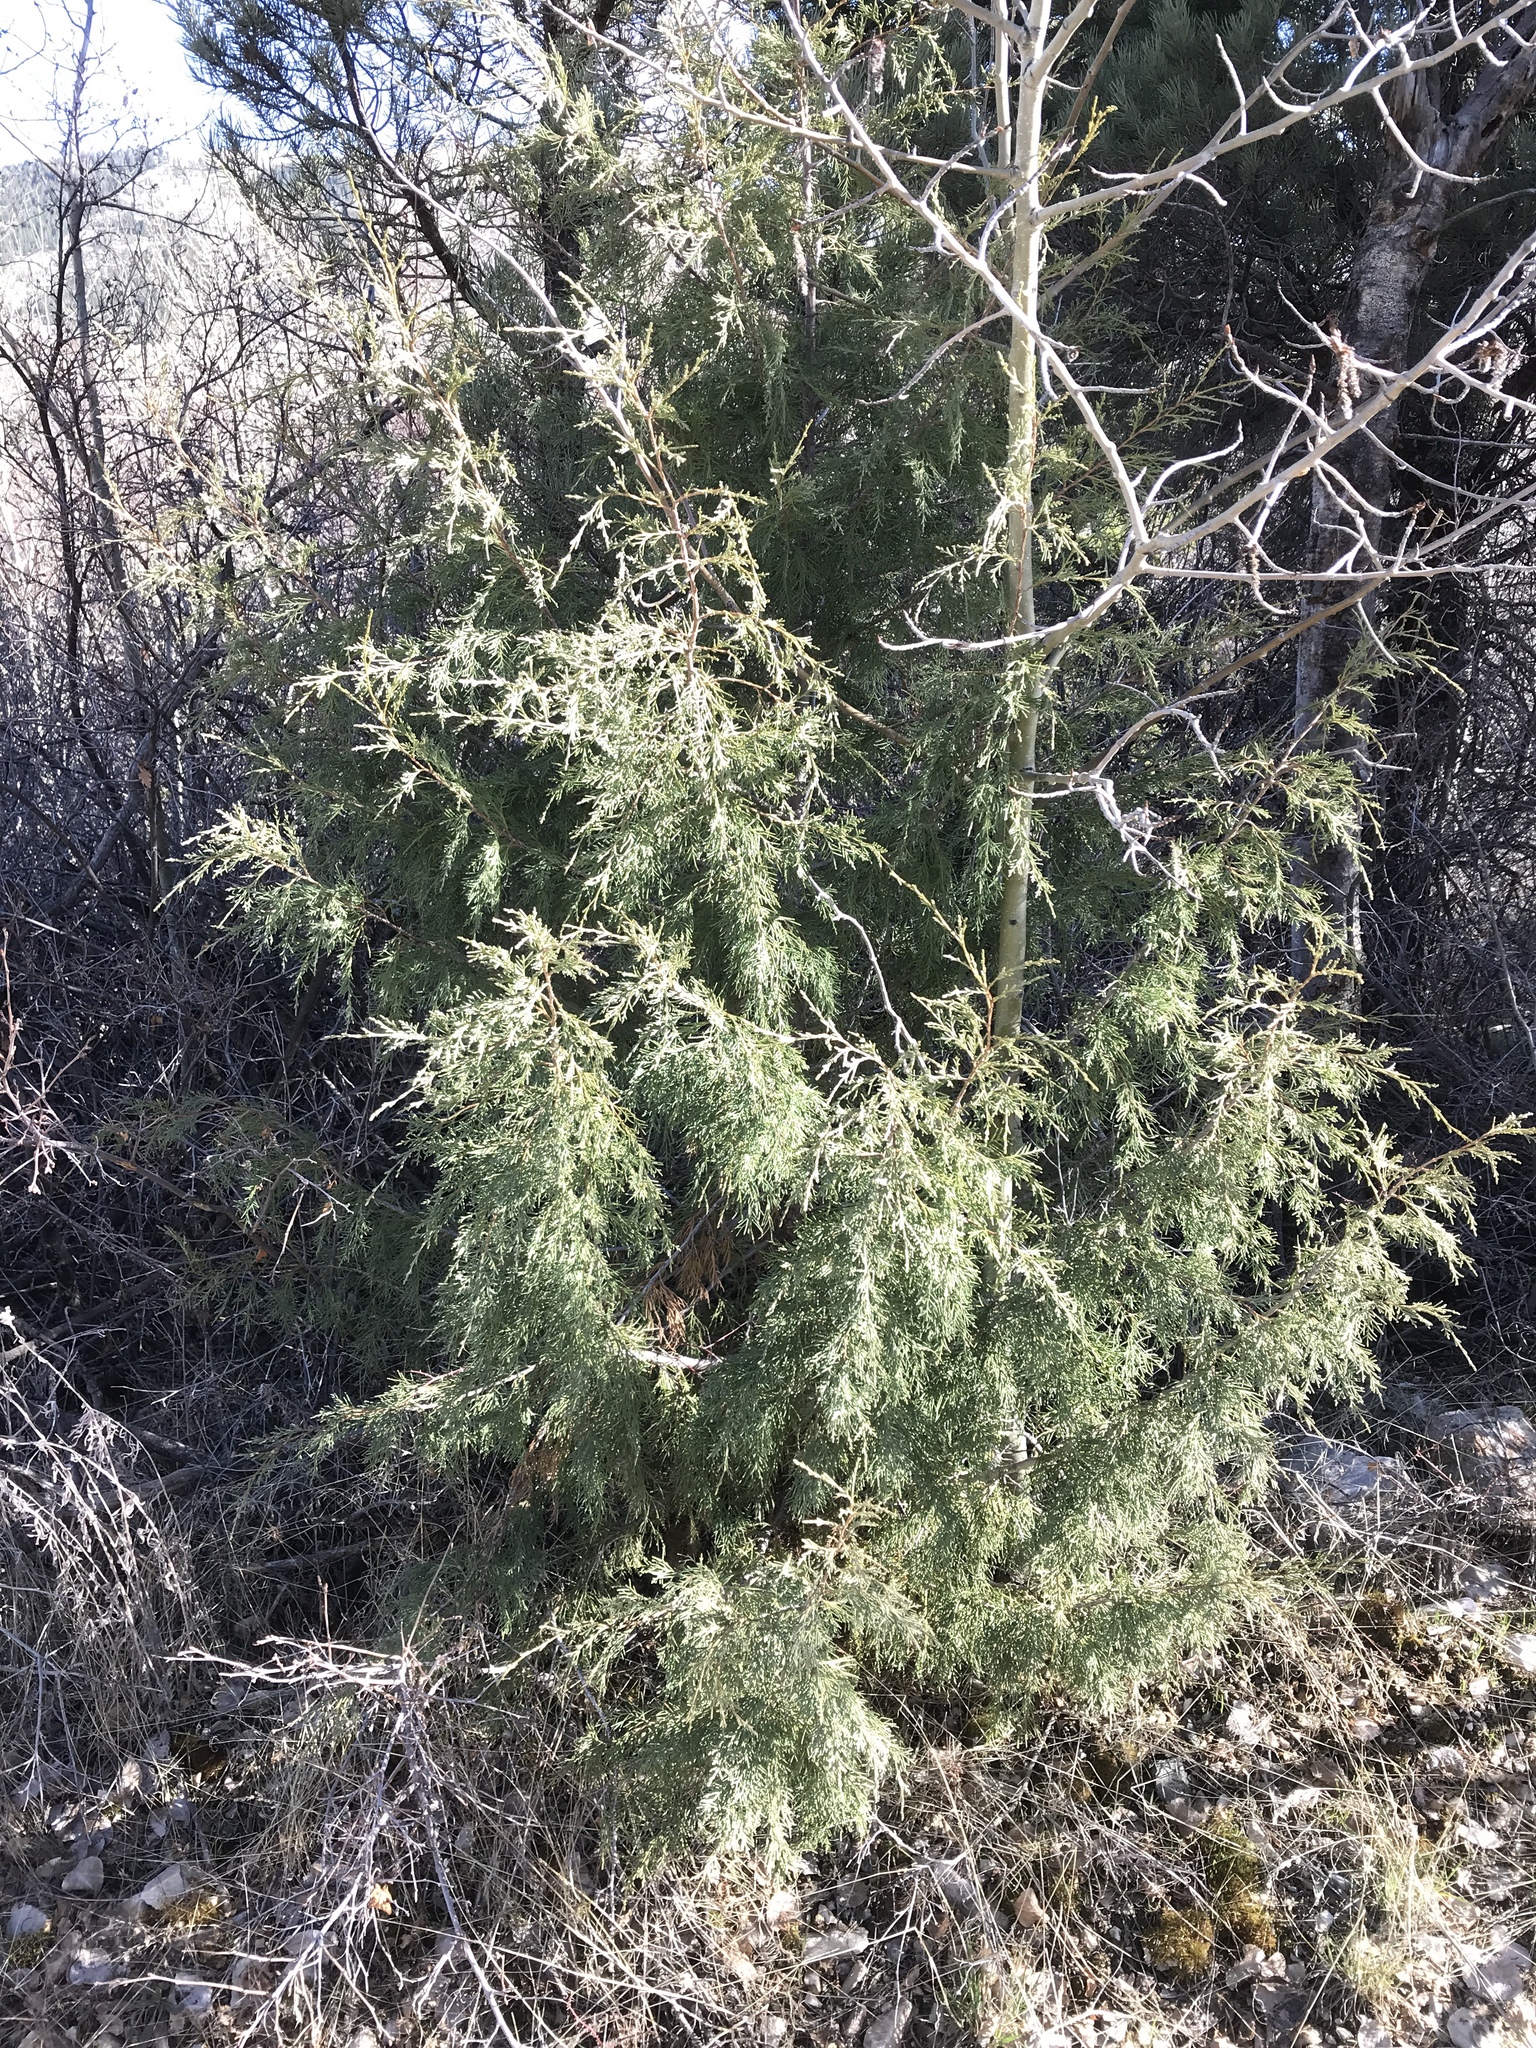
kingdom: Plantae
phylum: Tracheophyta
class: Pinopsida
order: Pinales
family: Cupressaceae
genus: Juniperus
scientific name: Juniperus scopulorum
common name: Rocky mountain juniper
